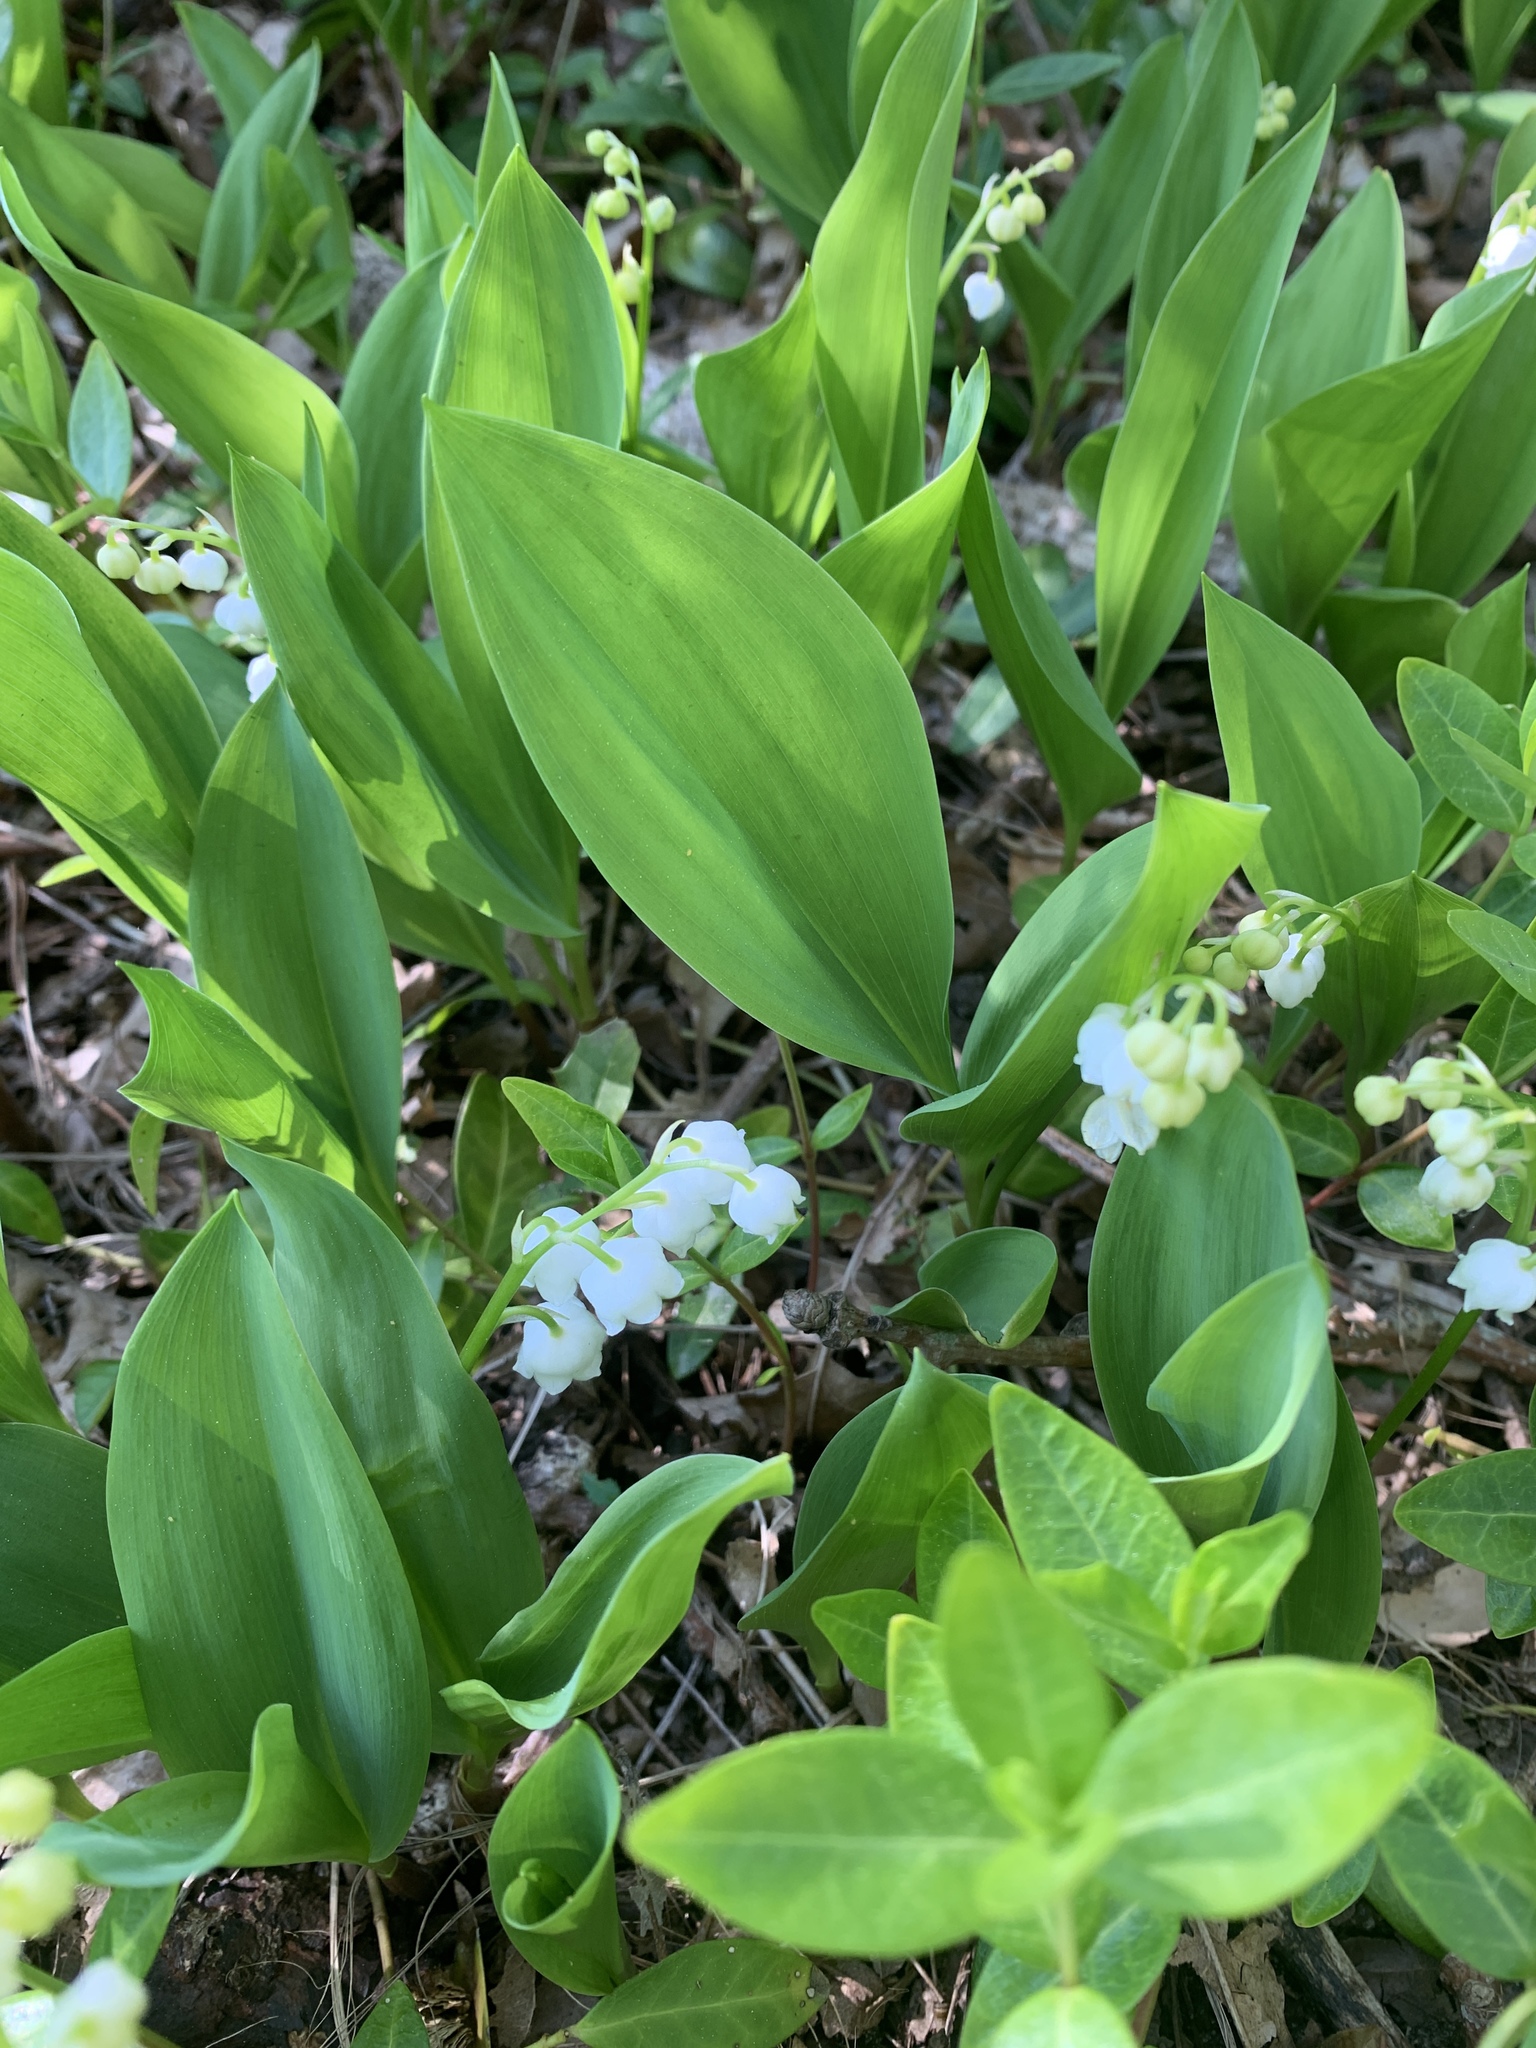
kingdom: Plantae
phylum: Tracheophyta
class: Liliopsida
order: Asparagales
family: Asparagaceae
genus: Convallaria
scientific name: Convallaria majalis
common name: Lily-of-the-valley
